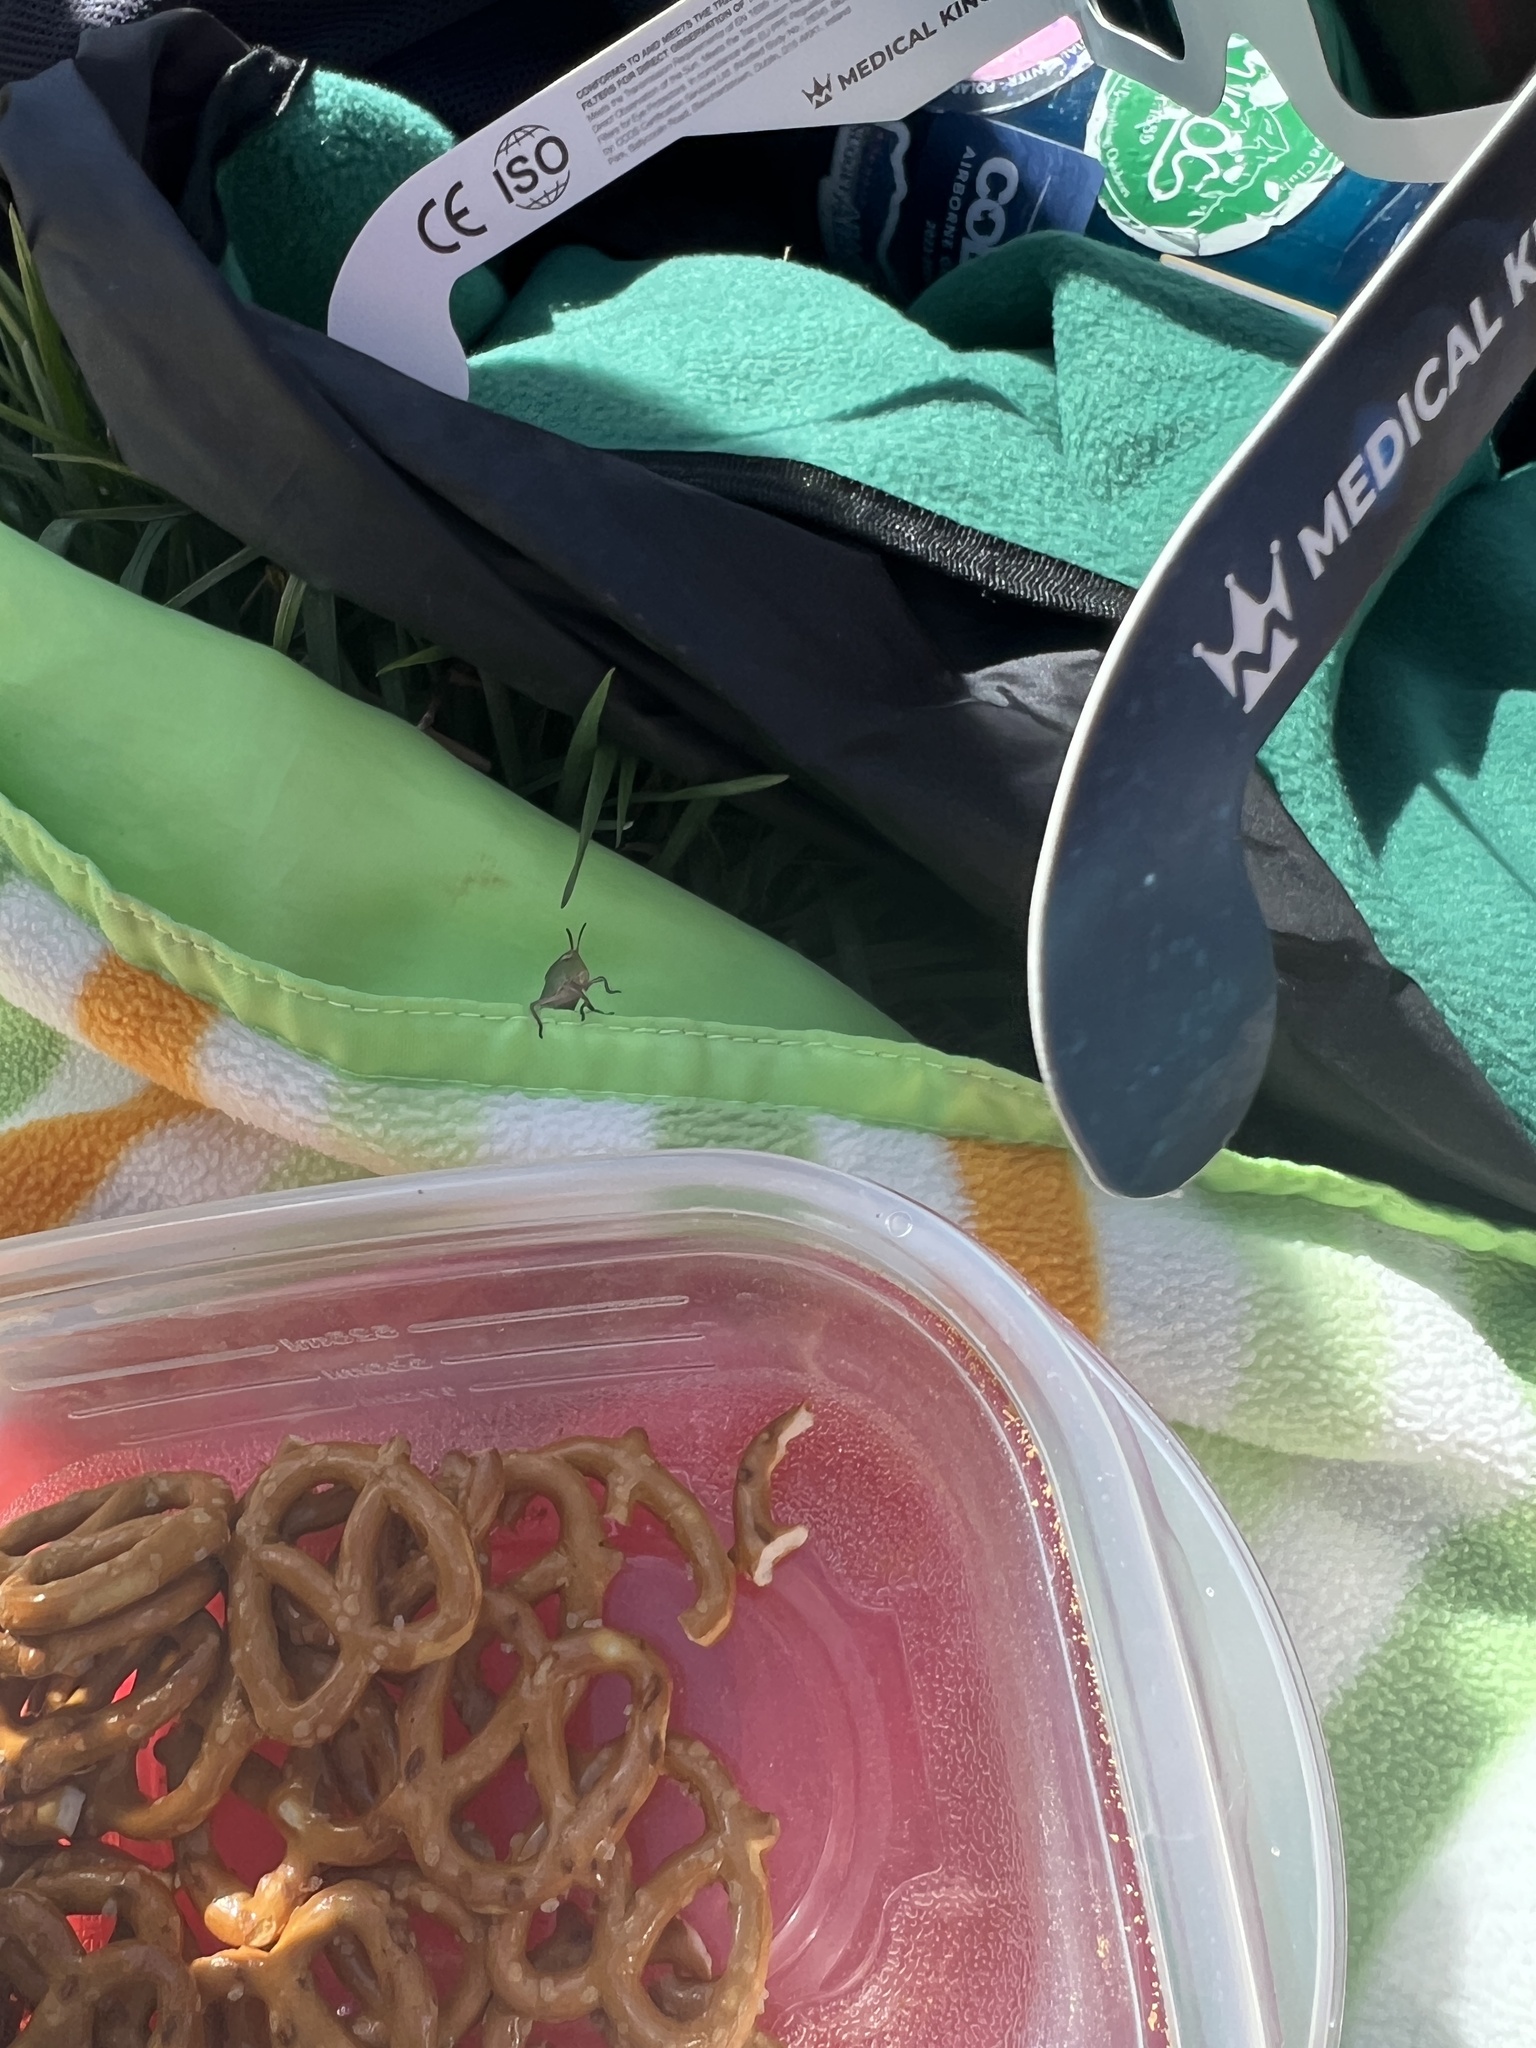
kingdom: Animalia
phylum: Arthropoda
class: Insecta
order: Orthoptera
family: Acrididae
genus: Chortophaga
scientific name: Chortophaga viridifasciata
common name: Green-striped grasshopper
